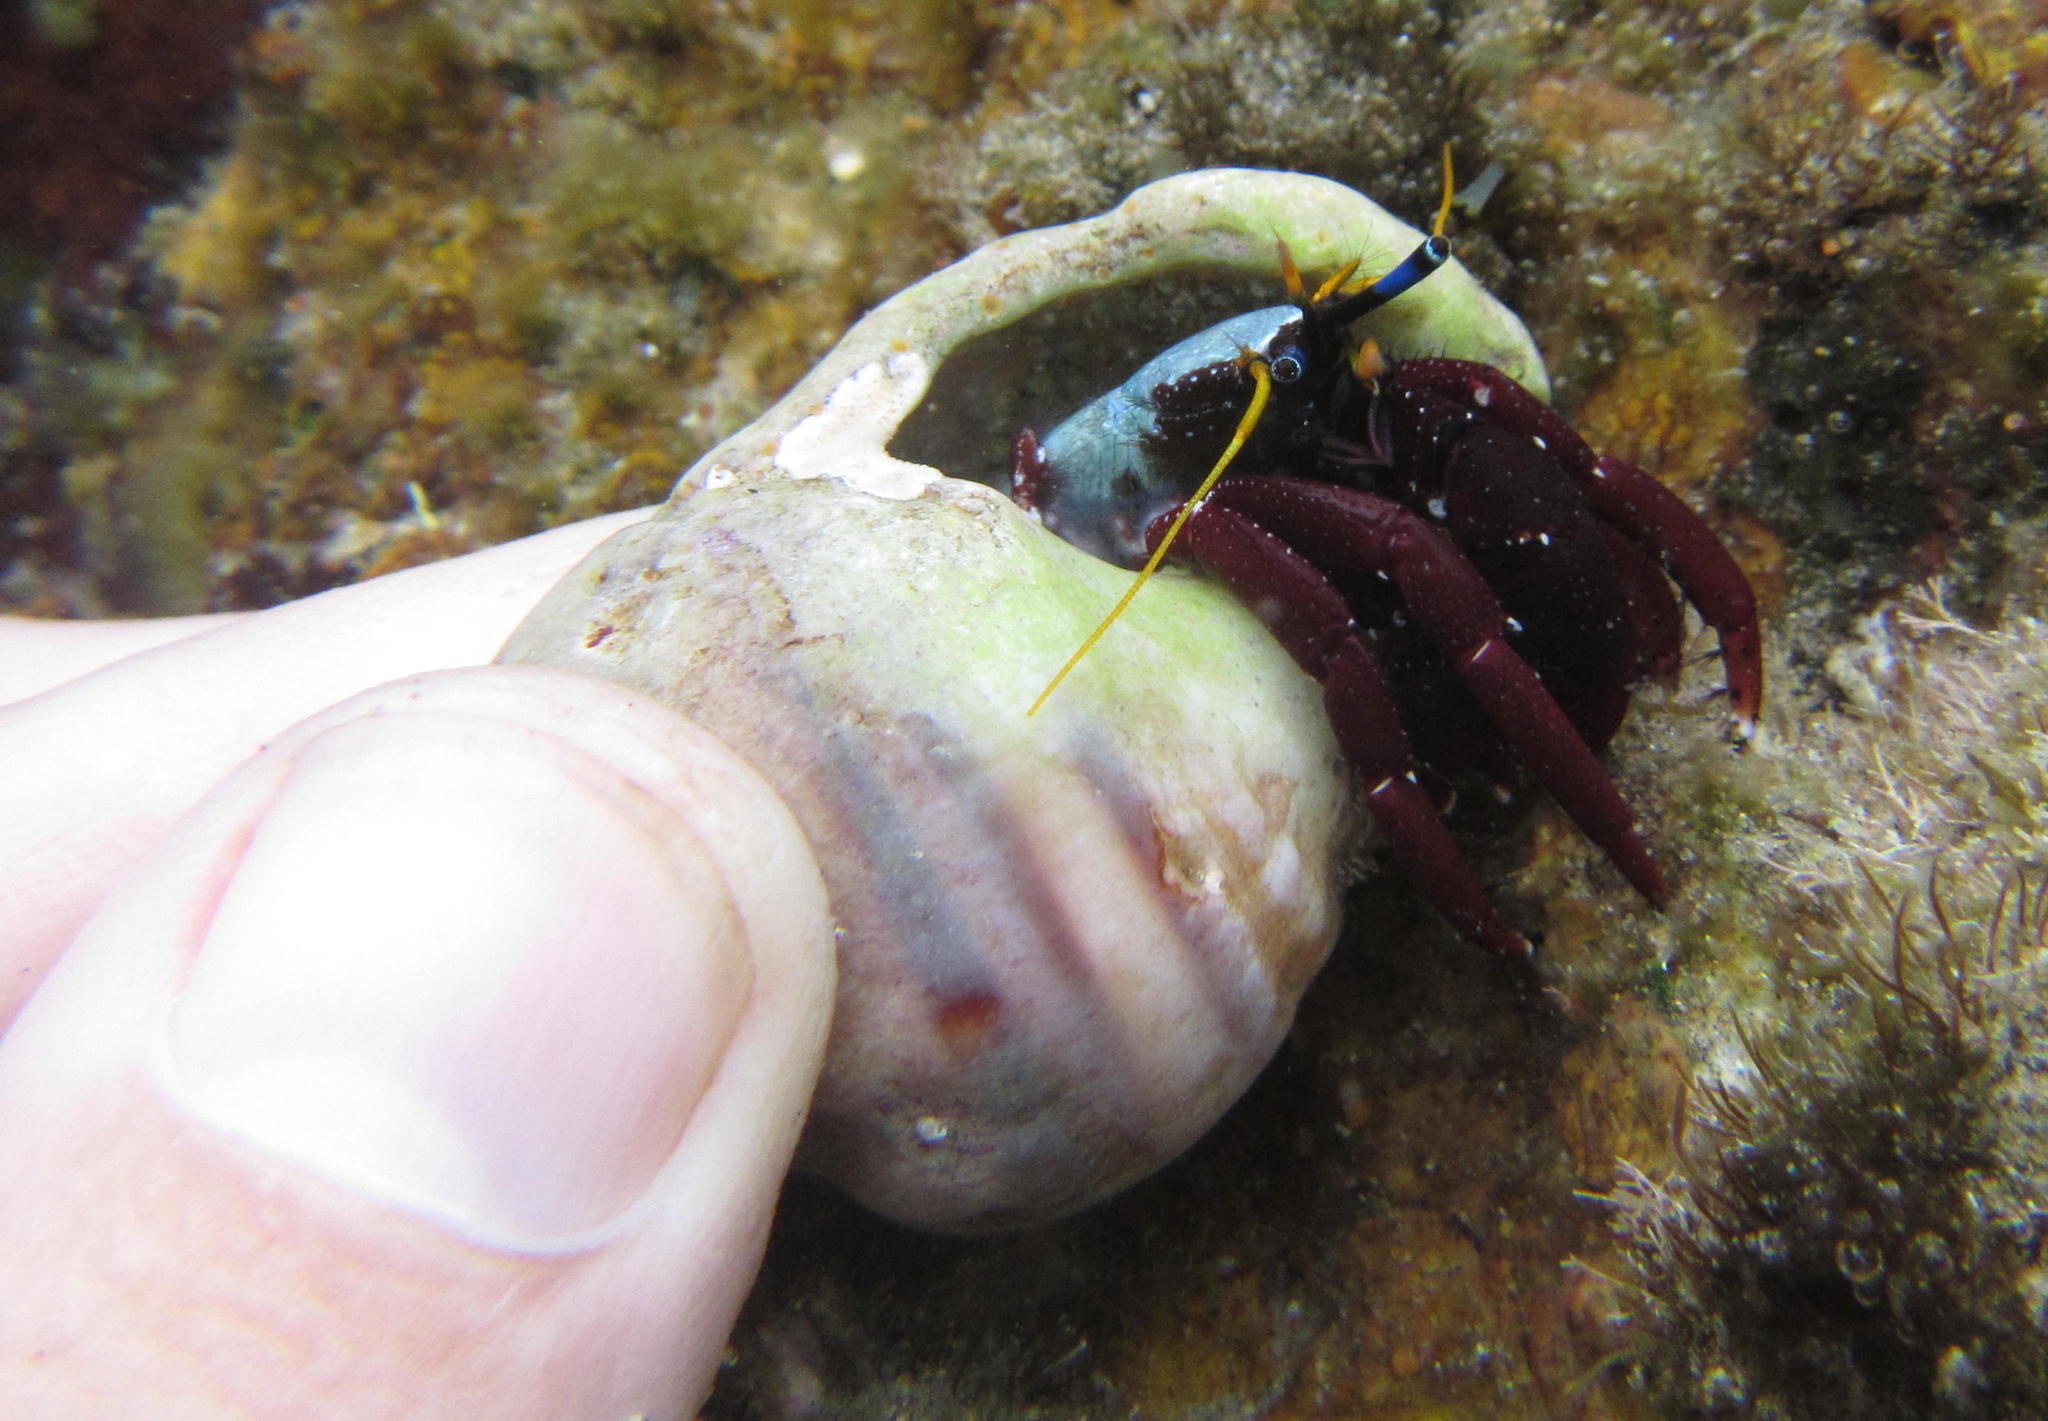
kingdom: Animalia
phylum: Arthropoda
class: Malacostraca
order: Decapoda
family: Diogenidae
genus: Calcinus
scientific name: Calcinus morgani
